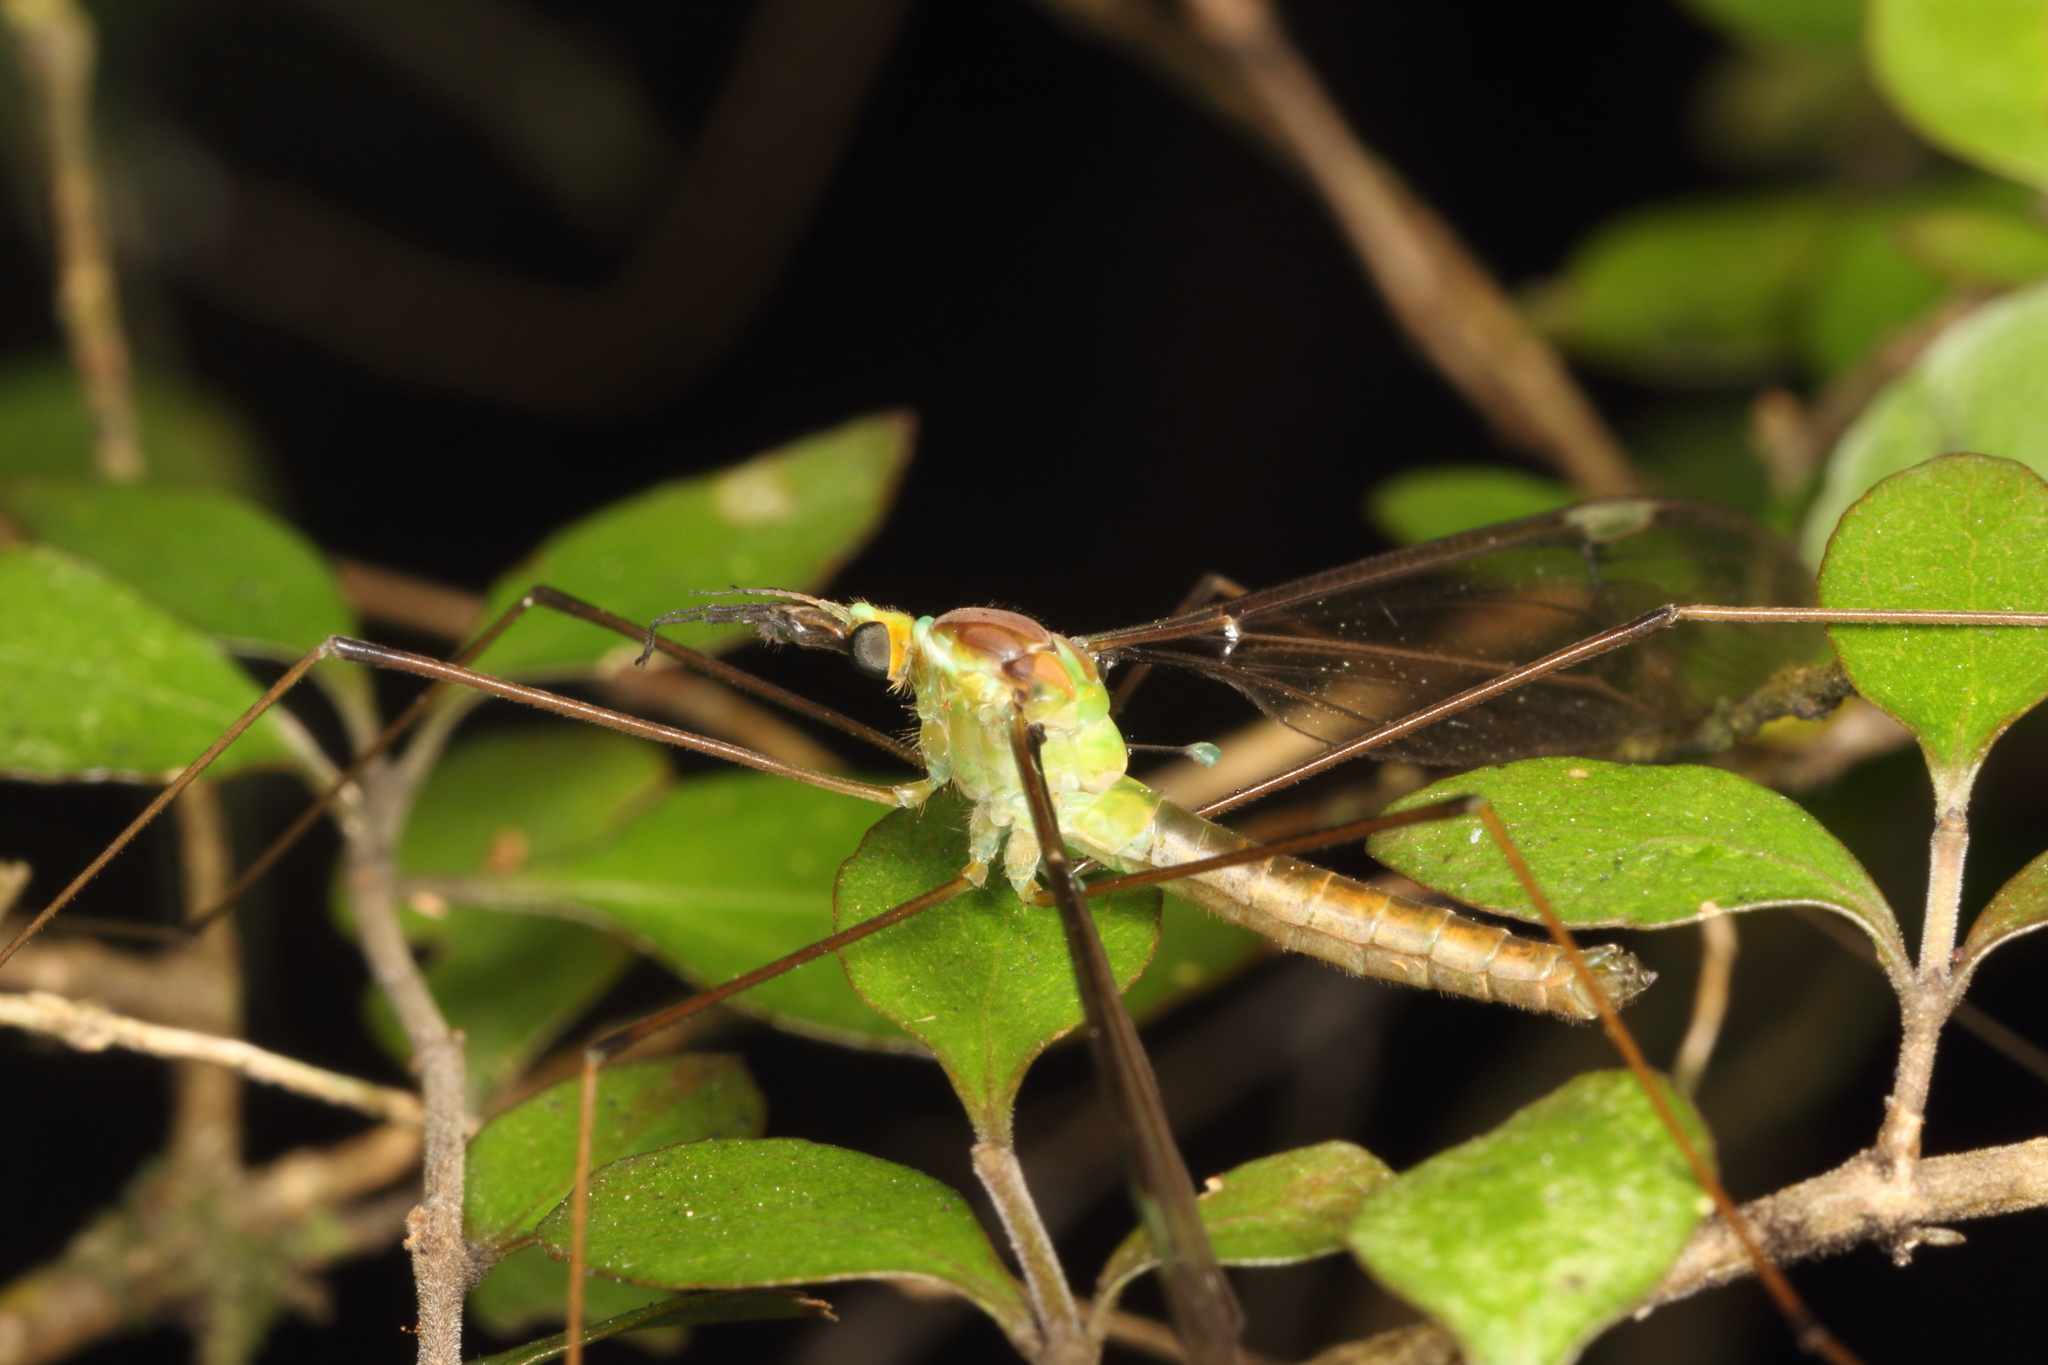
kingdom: Animalia
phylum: Arthropoda
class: Insecta
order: Diptera
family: Tipulidae
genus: Leptotarsus
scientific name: Leptotarsus albistigma
